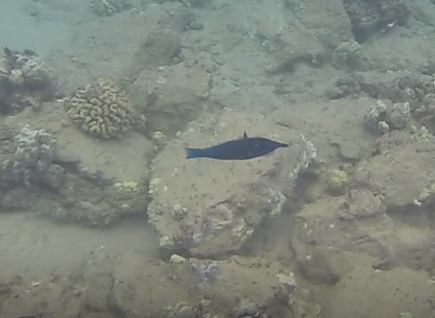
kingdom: Animalia
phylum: Chordata
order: Perciformes
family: Labridae
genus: Gomphosus
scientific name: Gomphosus varius
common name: Bird wrasse
